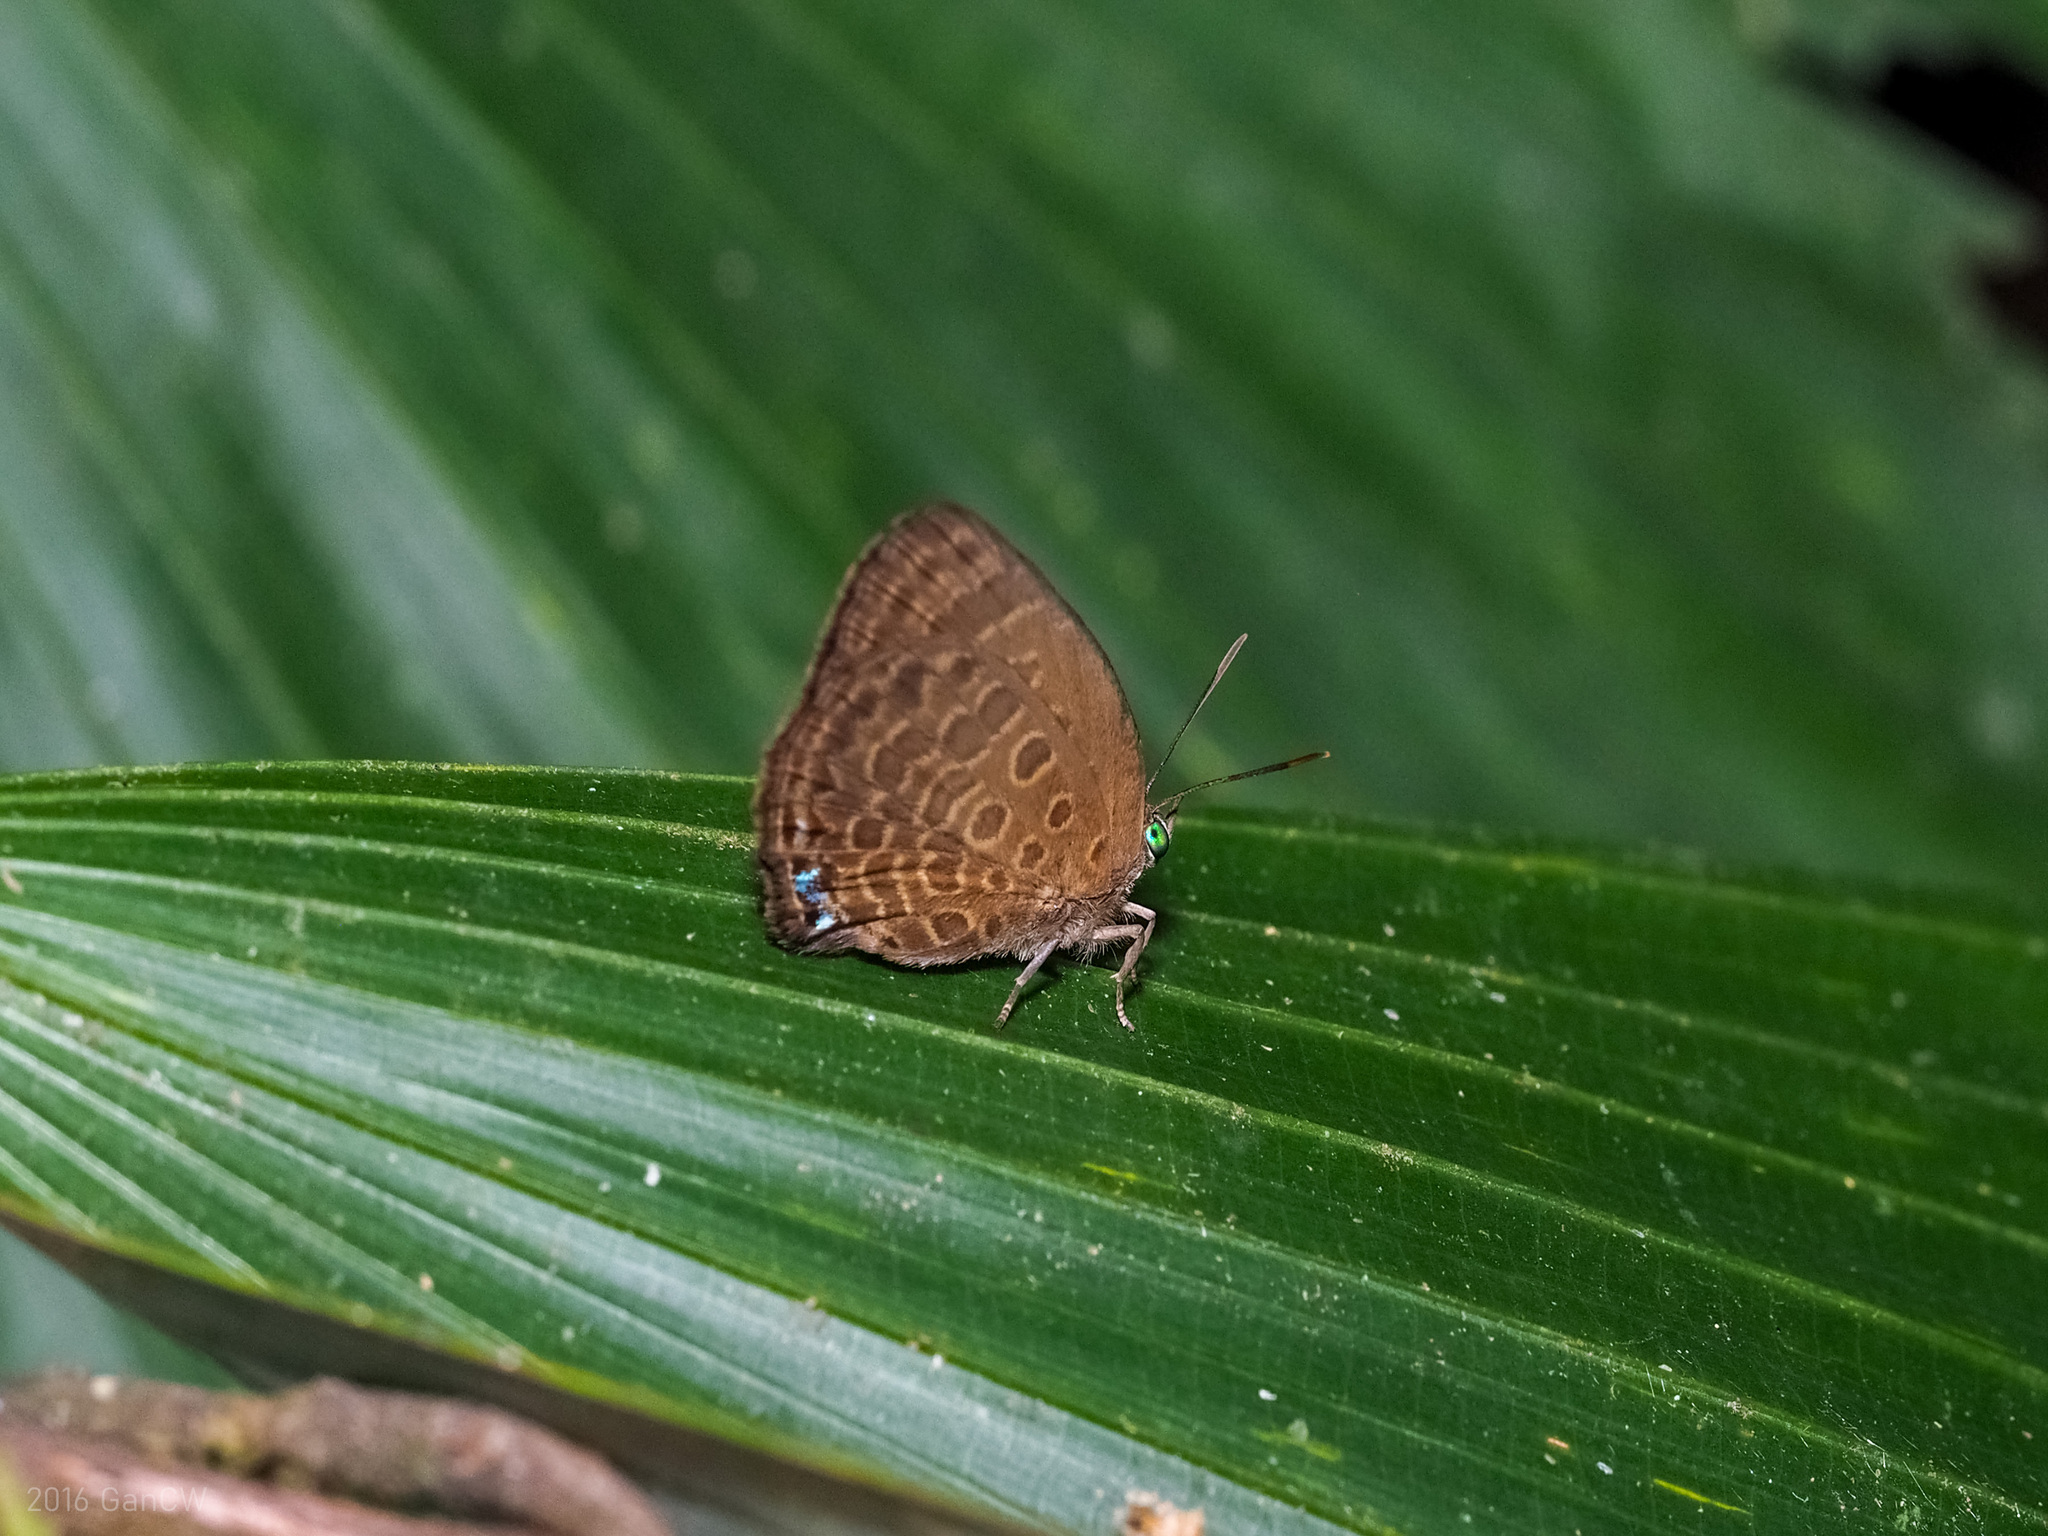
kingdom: Animalia
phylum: Arthropoda
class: Insecta
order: Lepidoptera
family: Lycaenidae
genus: Arhopala
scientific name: Arhopala wildeyana
